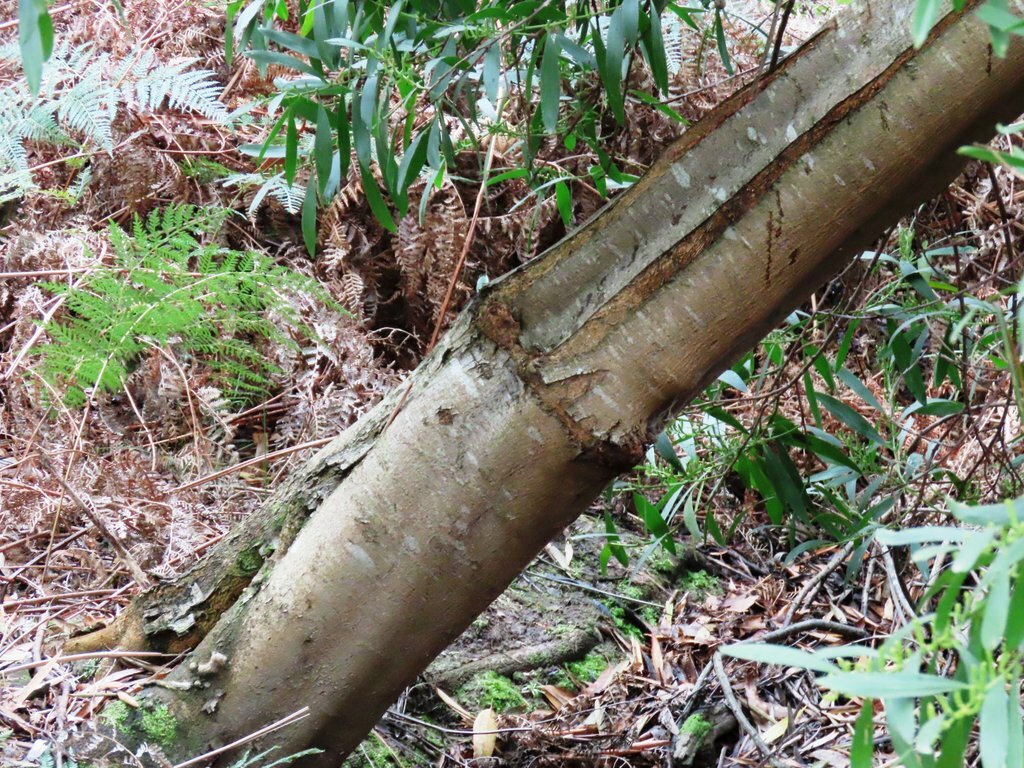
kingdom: Plantae
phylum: Tracheophyta
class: Magnoliopsida
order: Fabales
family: Fabaceae
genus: Acacia
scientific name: Acacia longifolia
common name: Sydney golden wattle
